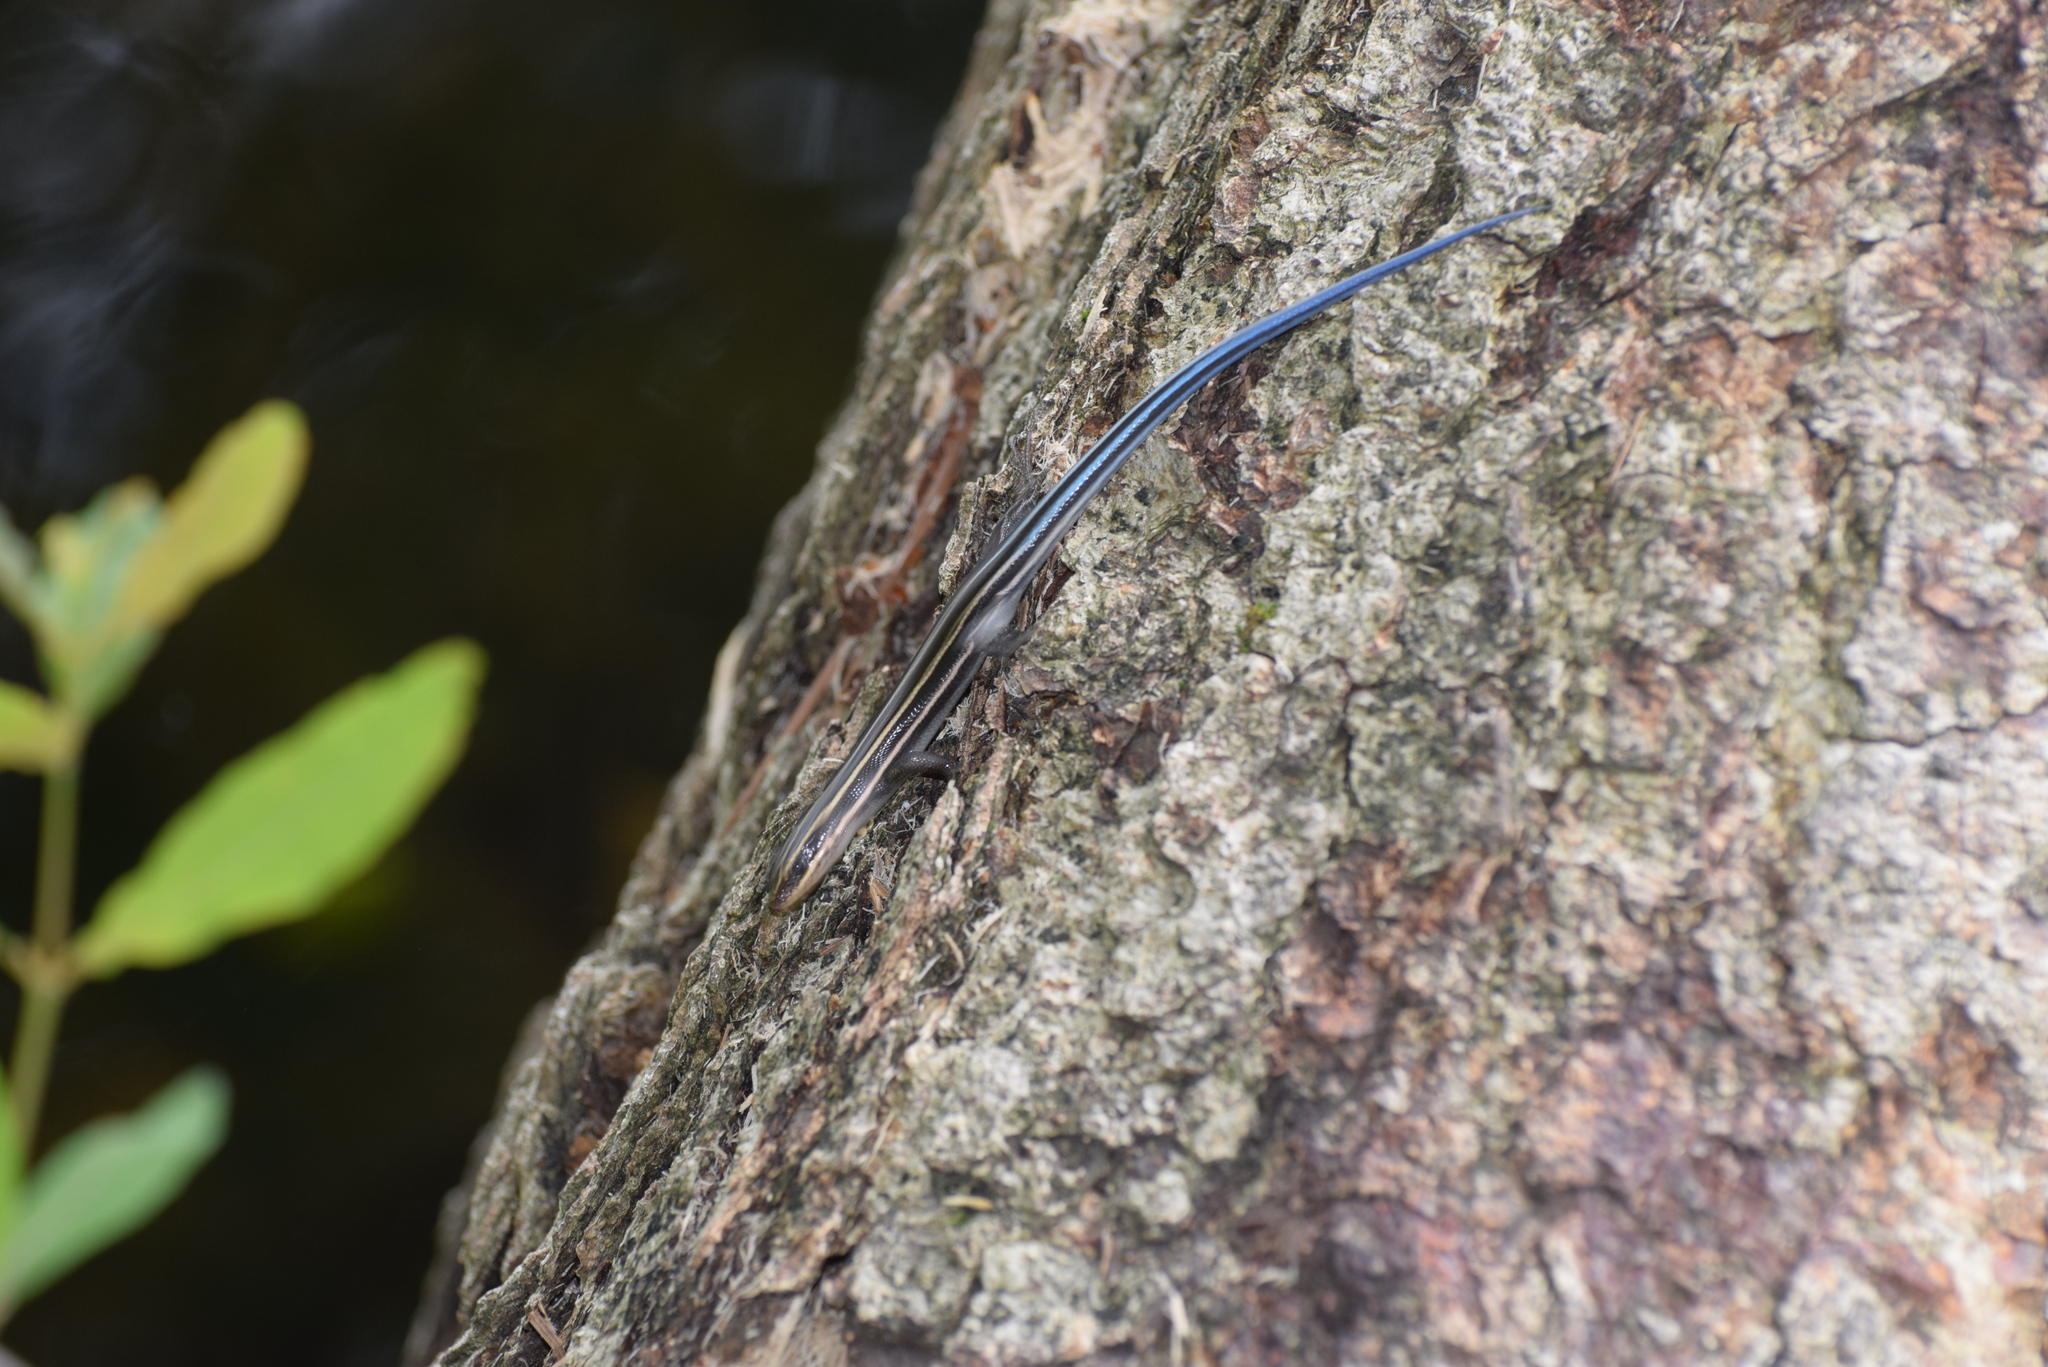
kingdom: Animalia
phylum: Chordata
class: Squamata
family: Scincidae
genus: Plestiodon
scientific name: Plestiodon fasciatus
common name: Five-lined skink
